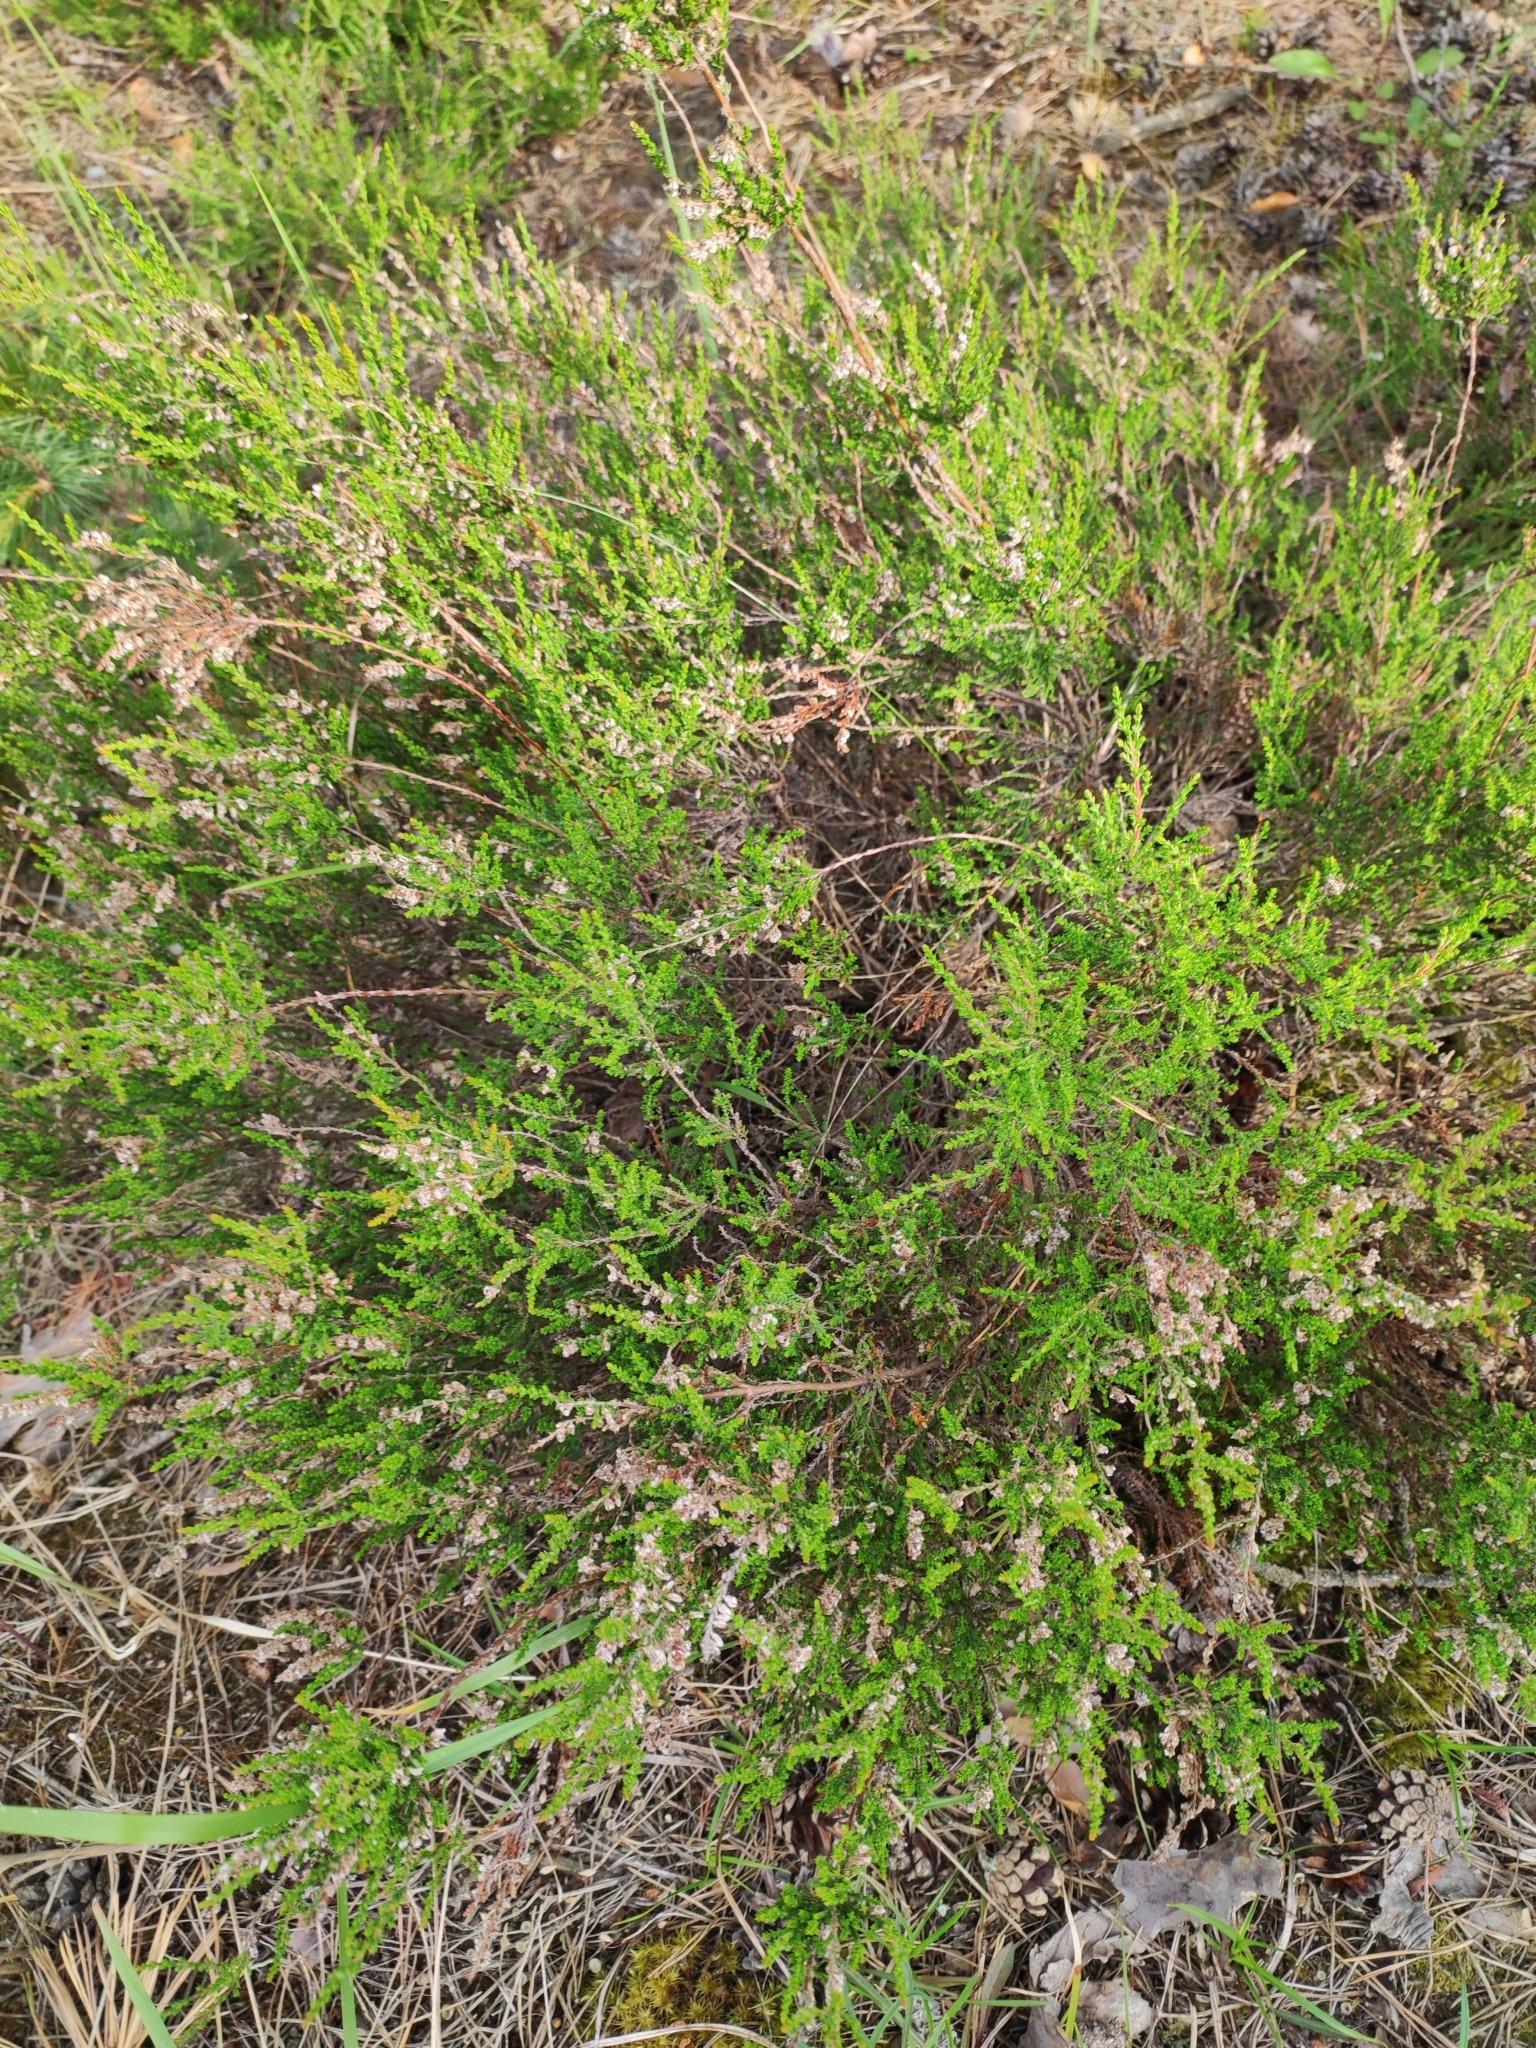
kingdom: Plantae
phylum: Tracheophyta
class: Magnoliopsida
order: Ericales
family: Ericaceae
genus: Calluna
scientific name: Calluna vulgaris
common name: Heather
